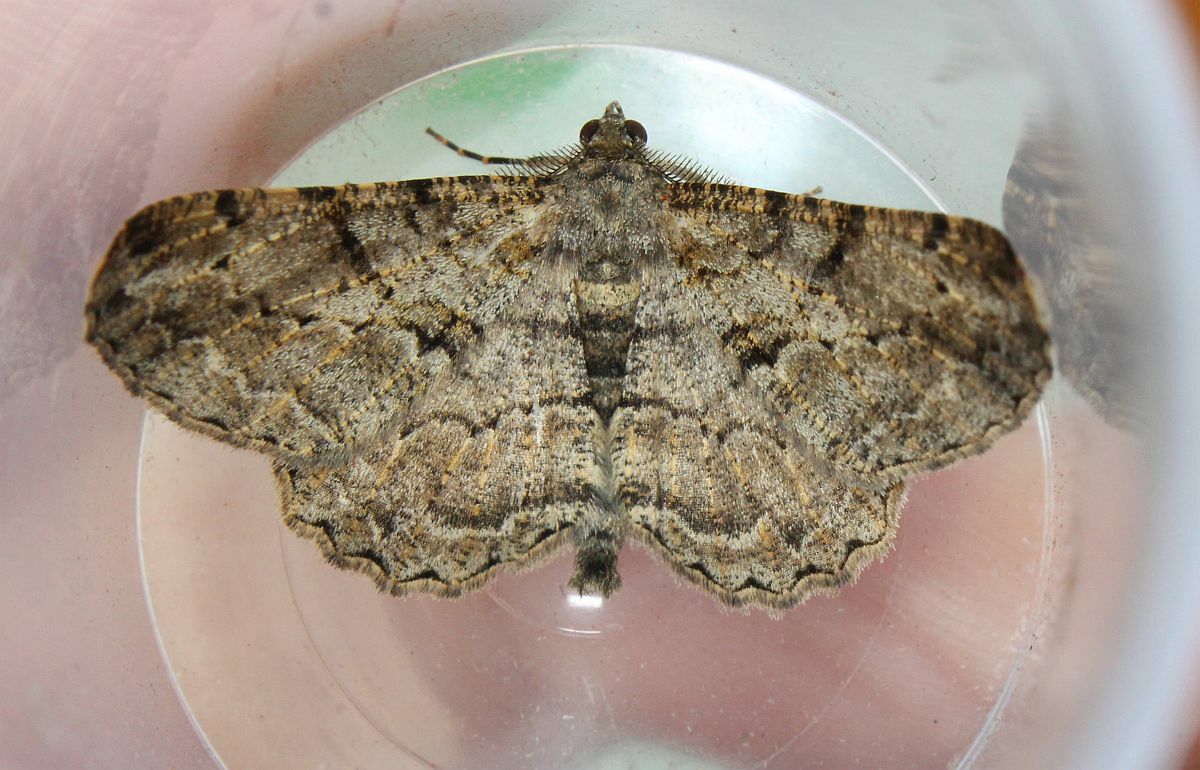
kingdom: Animalia
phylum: Arthropoda
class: Insecta
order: Lepidoptera
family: Geometridae
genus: Peribatodes
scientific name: Peribatodes rhomboidaria
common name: Willow beauty
